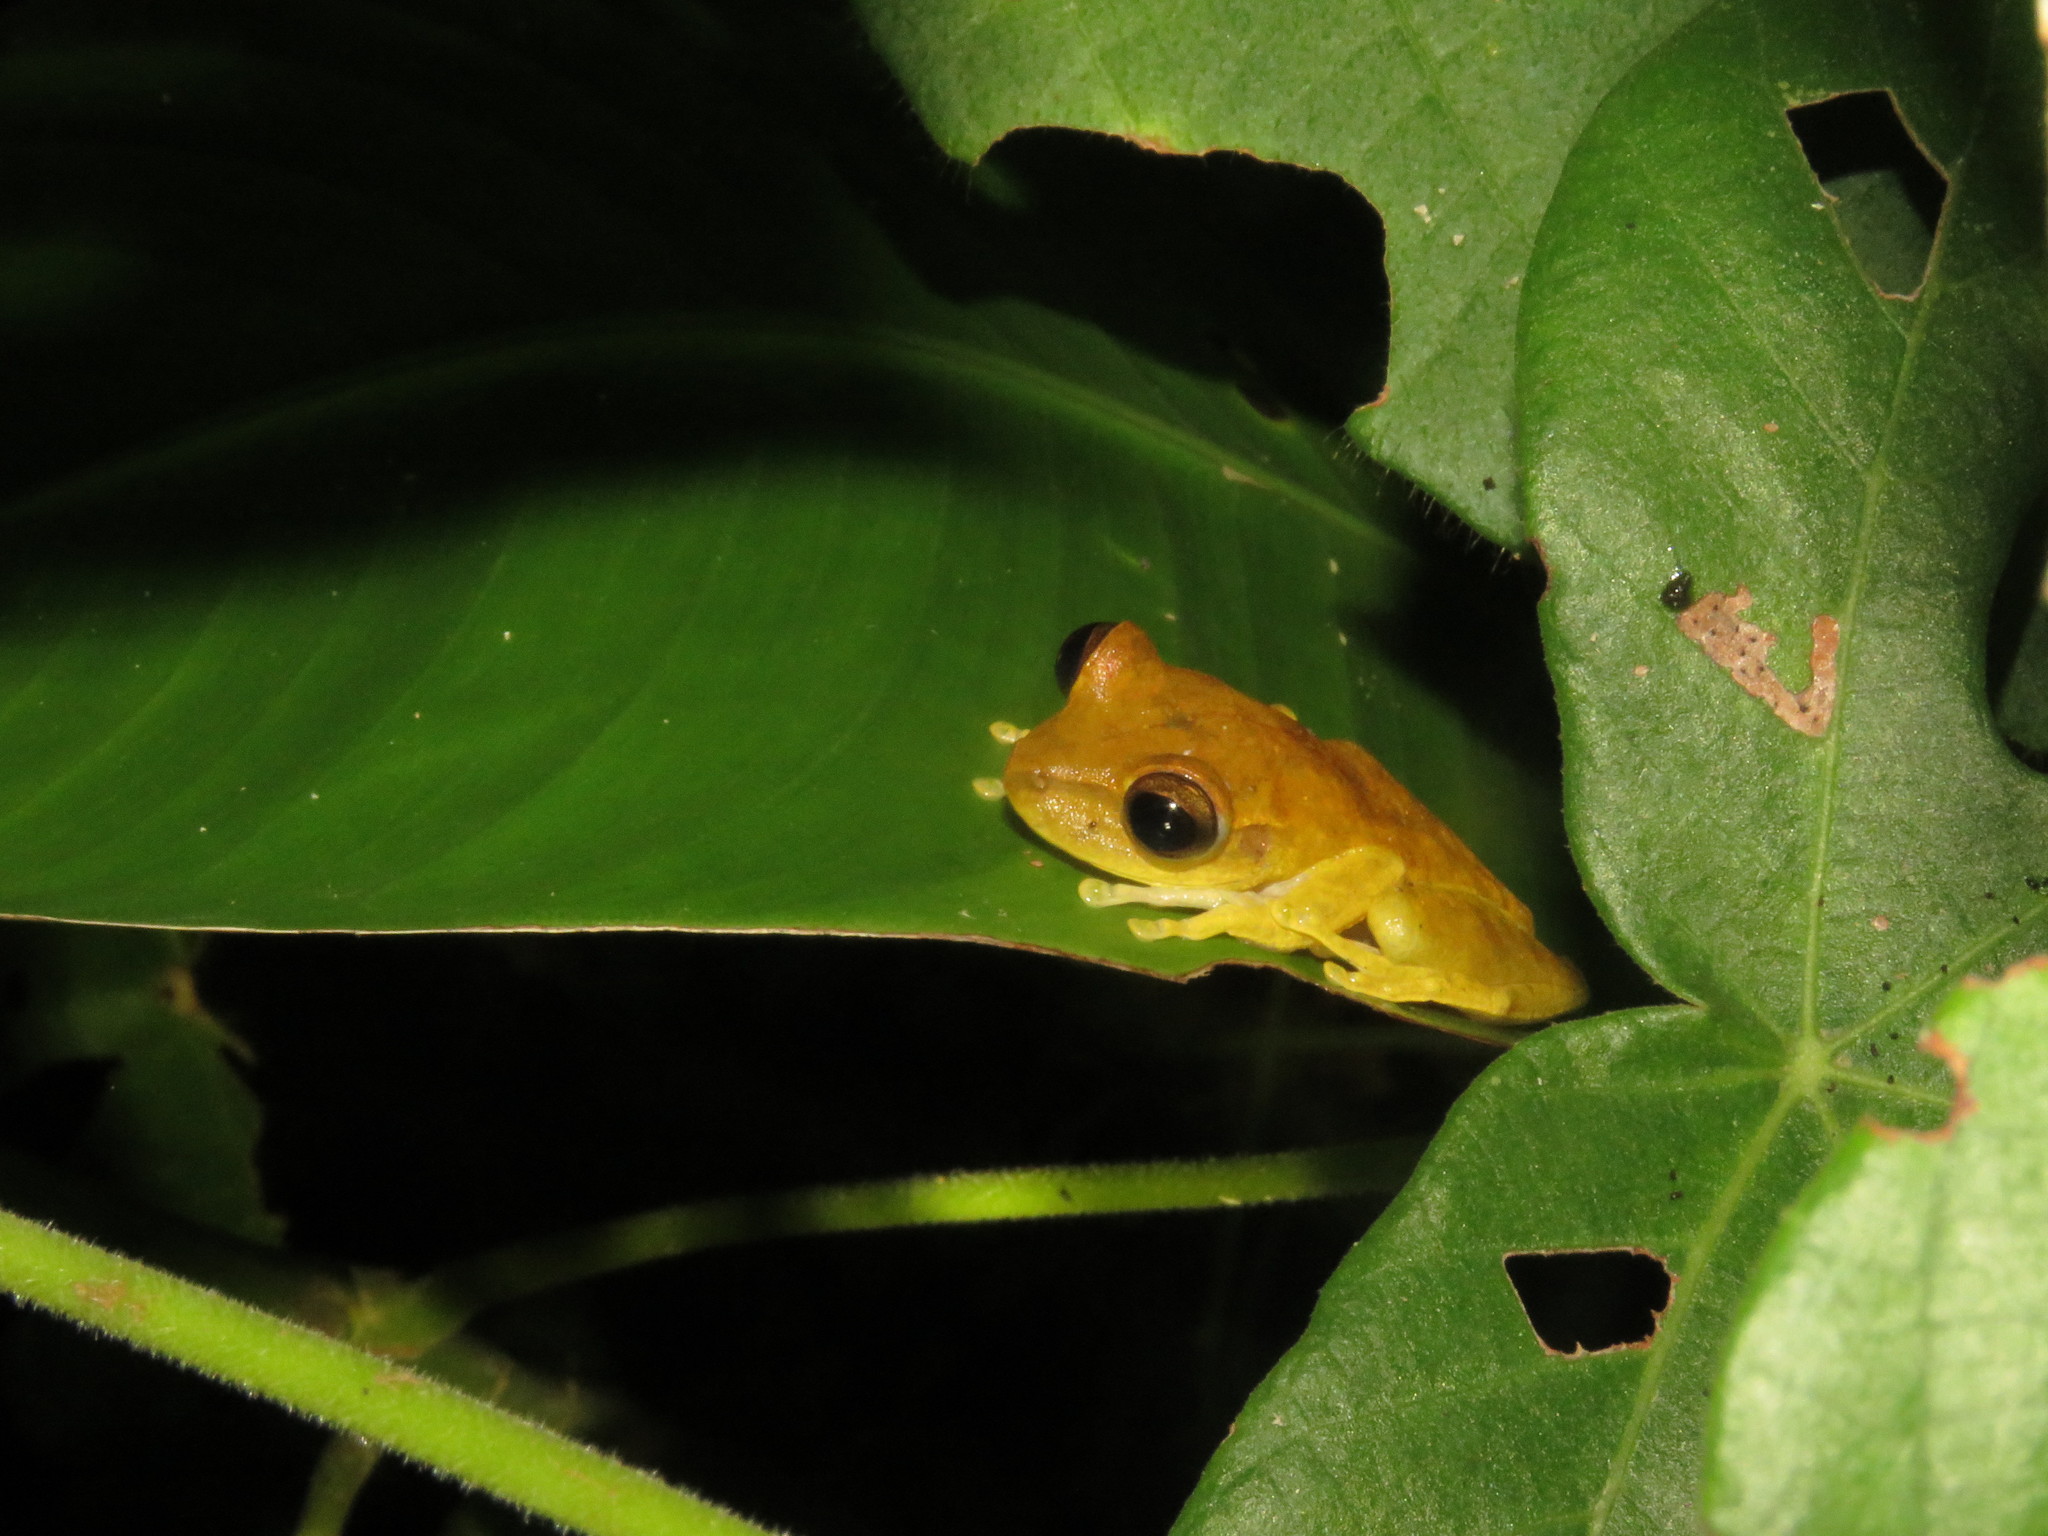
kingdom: Animalia
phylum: Chordata
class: Amphibia
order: Anura
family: Hylidae
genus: Boana
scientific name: Boana steinbachi
